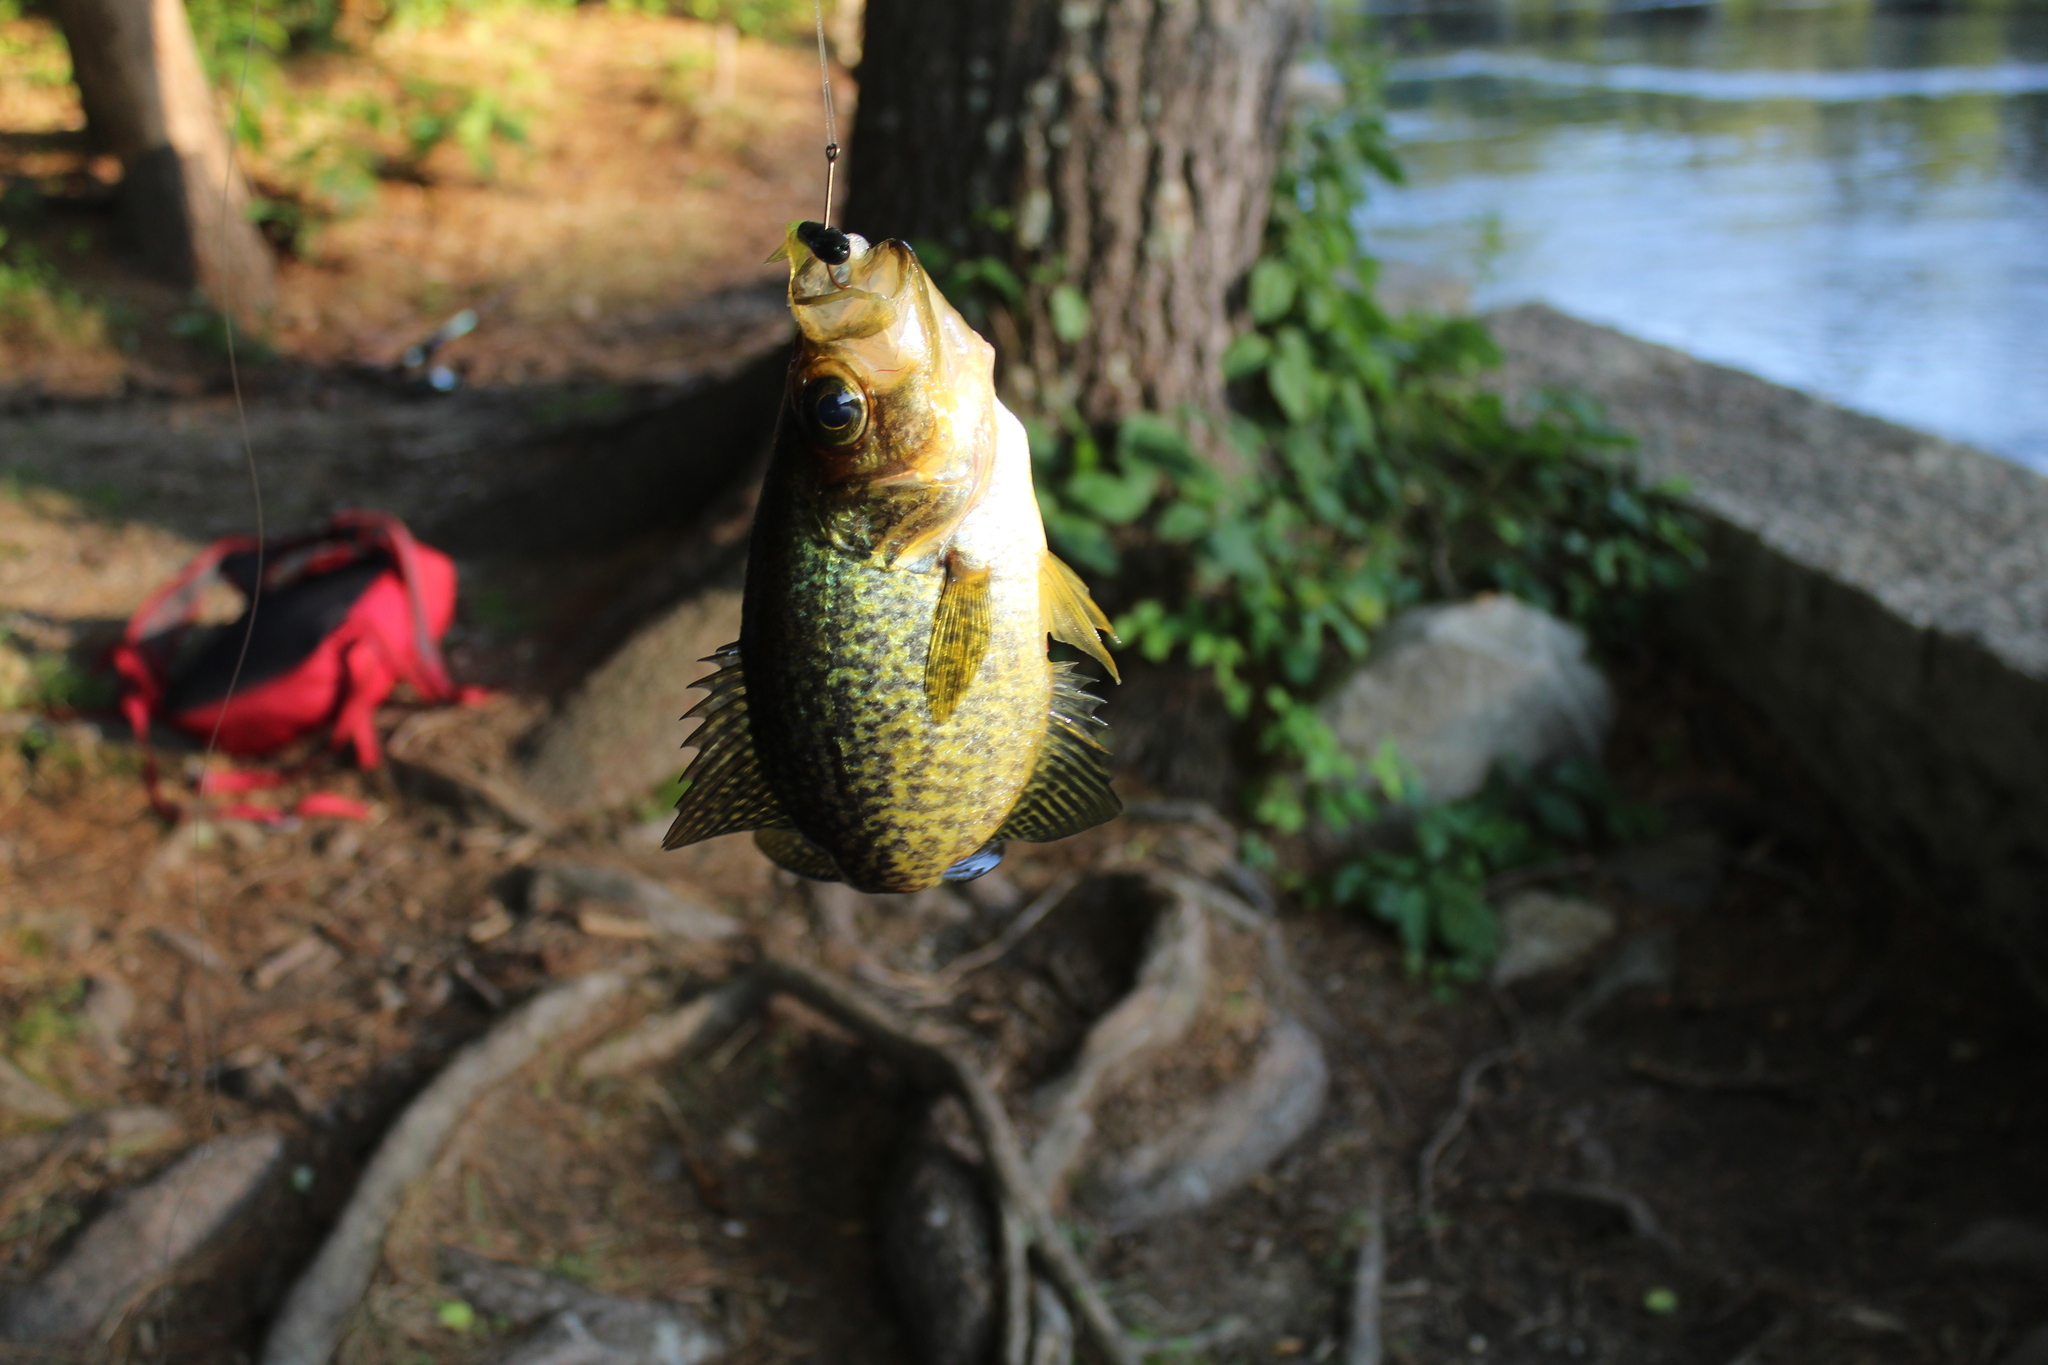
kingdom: Animalia
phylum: Chordata
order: Perciformes
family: Centrarchidae
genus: Pomoxis
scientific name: Pomoxis nigromaculatus
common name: Black crappie
